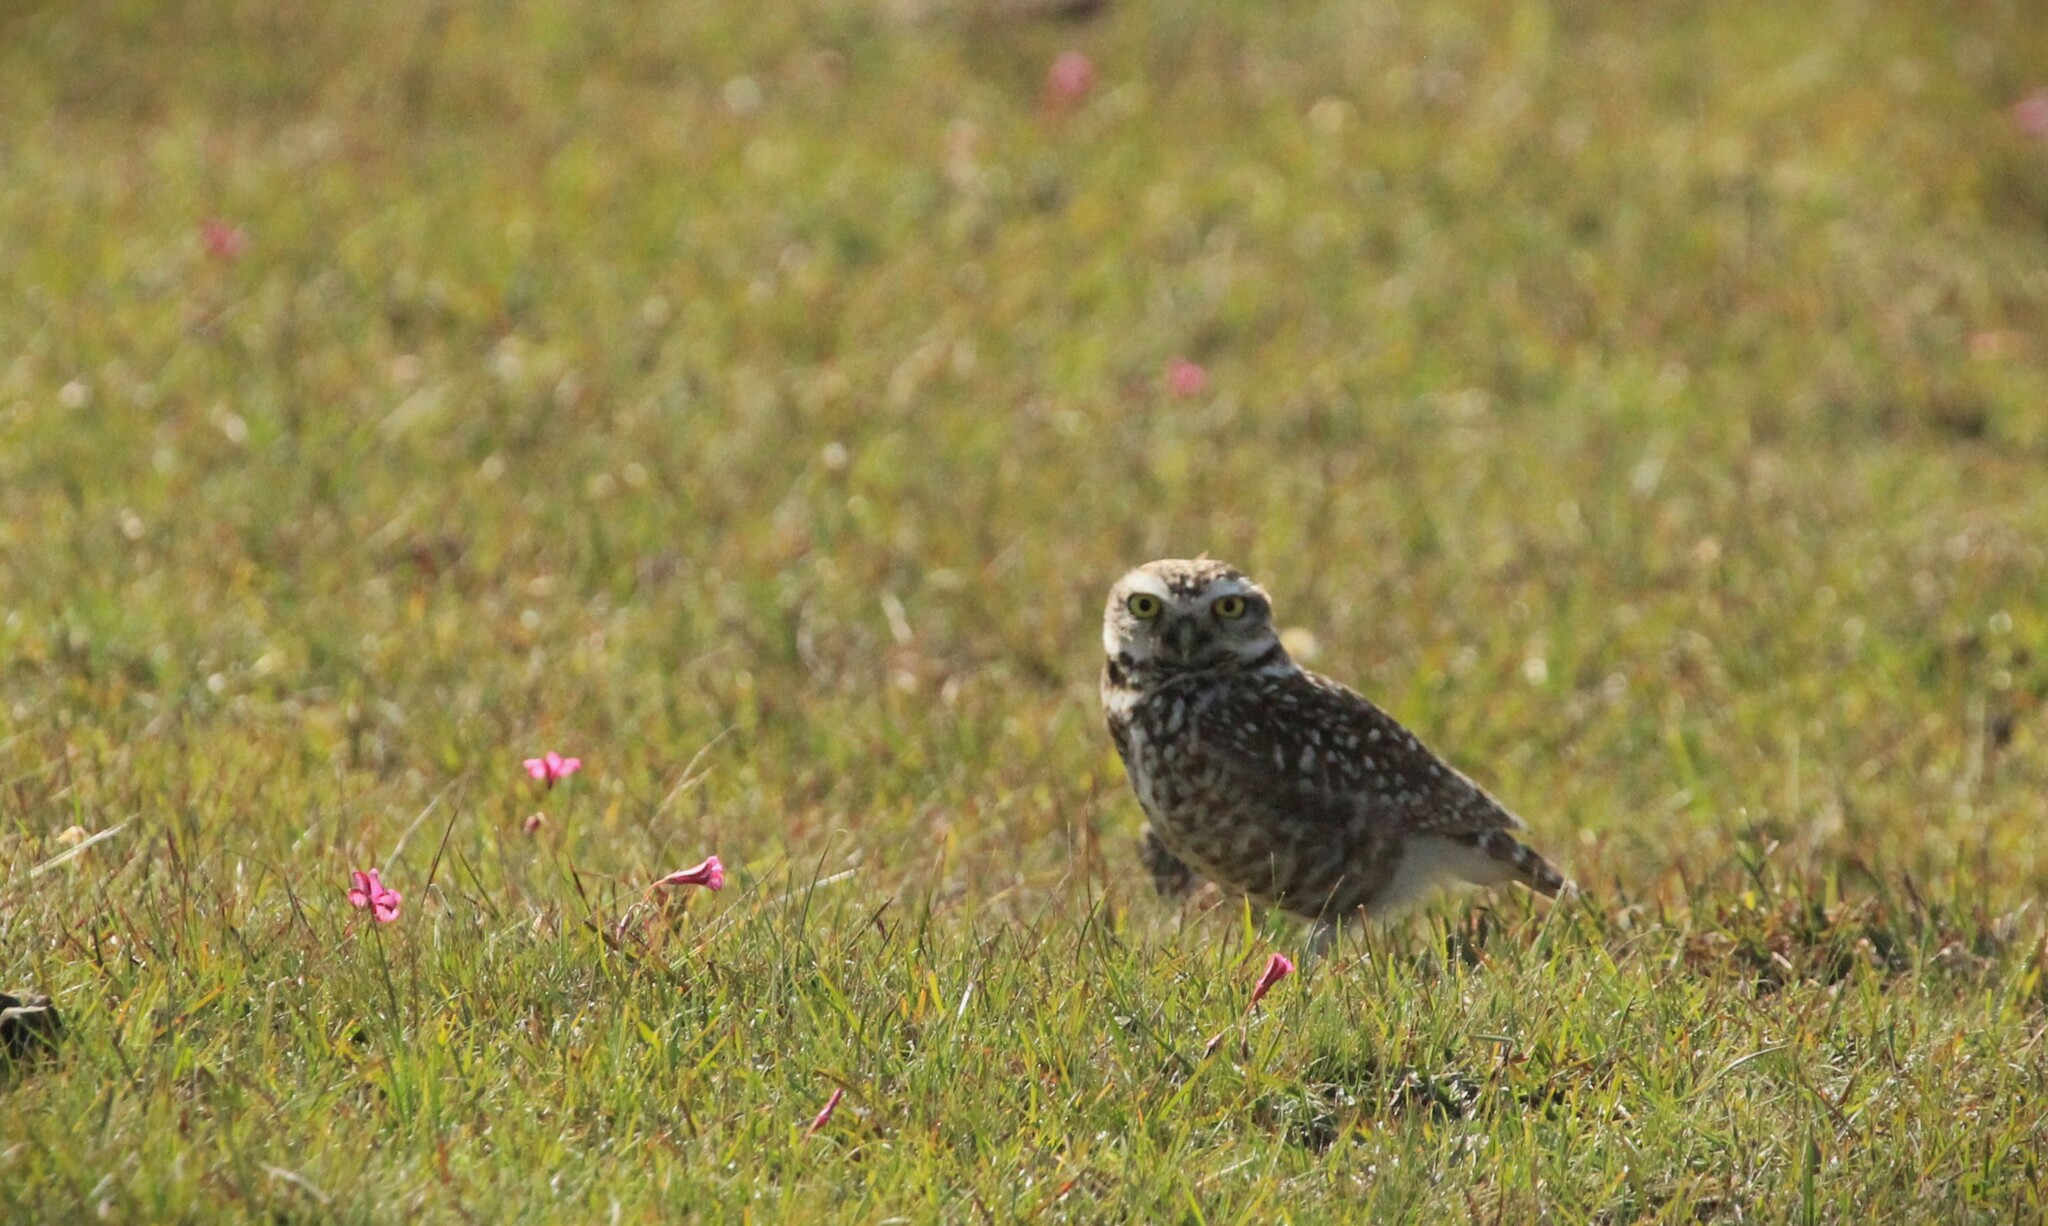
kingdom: Animalia
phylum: Chordata
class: Aves
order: Strigiformes
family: Strigidae
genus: Athene
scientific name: Athene cunicularia
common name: Burrowing owl
